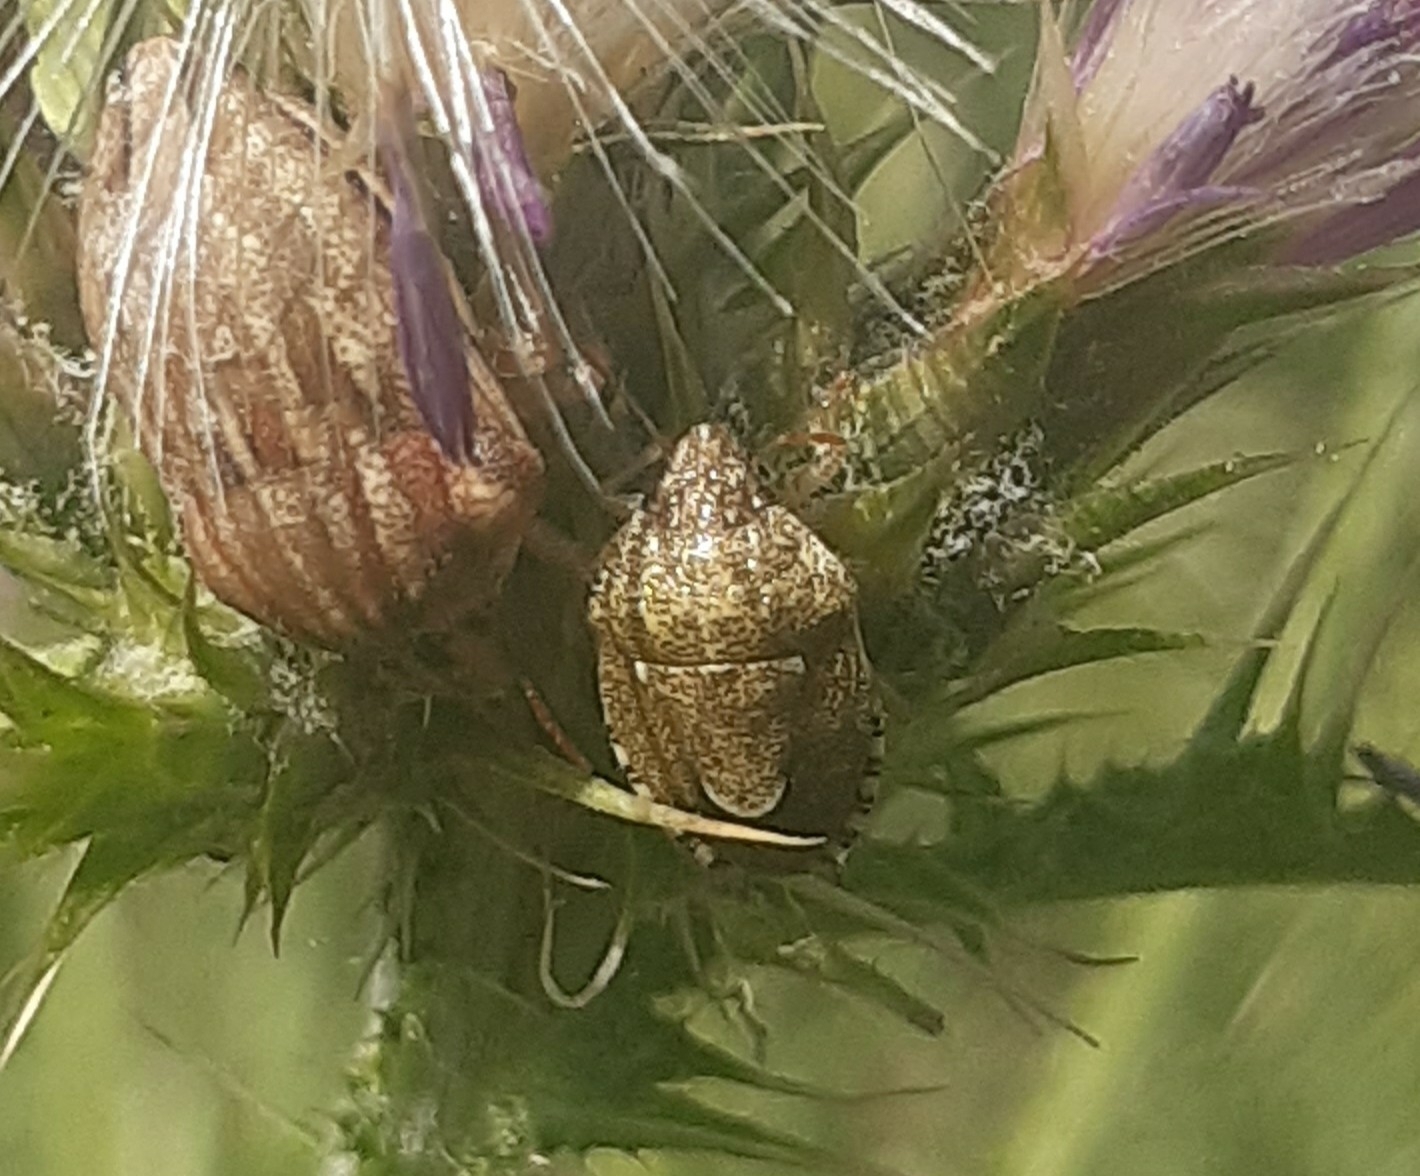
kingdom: Animalia
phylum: Arthropoda
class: Insecta
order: Hemiptera
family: Pentatomidae
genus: Staria
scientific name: Staria lunata
